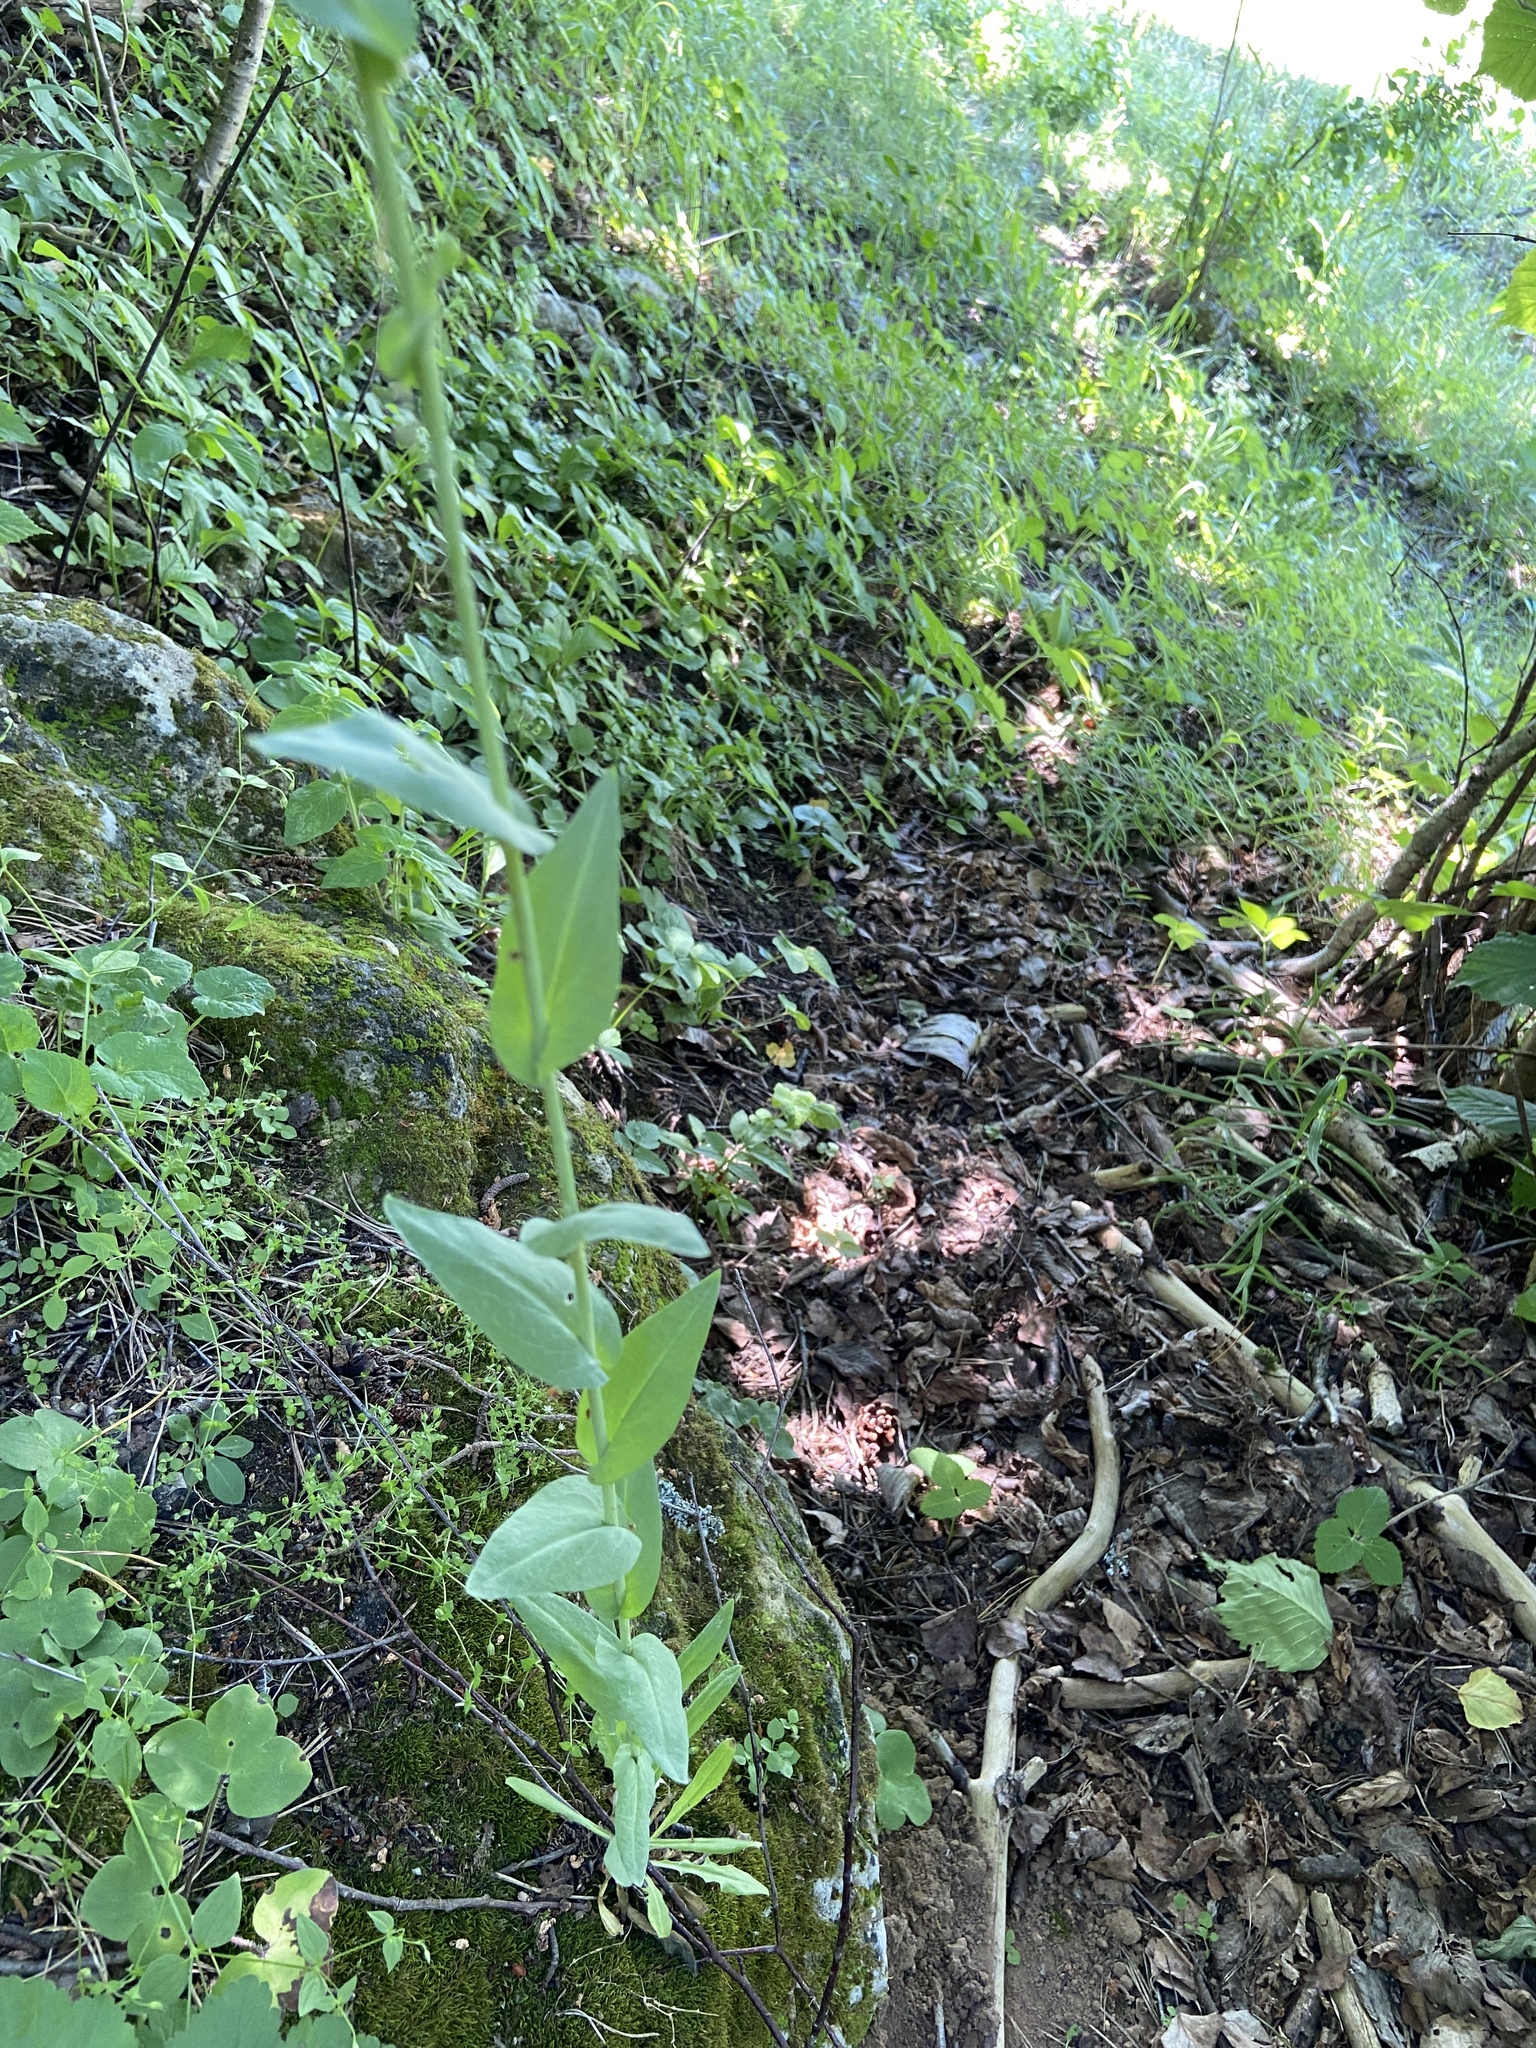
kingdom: Plantae
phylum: Tracheophyta
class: Magnoliopsida
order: Brassicales
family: Brassicaceae
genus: Turritis
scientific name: Turritis glabra
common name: Tower rockcress
